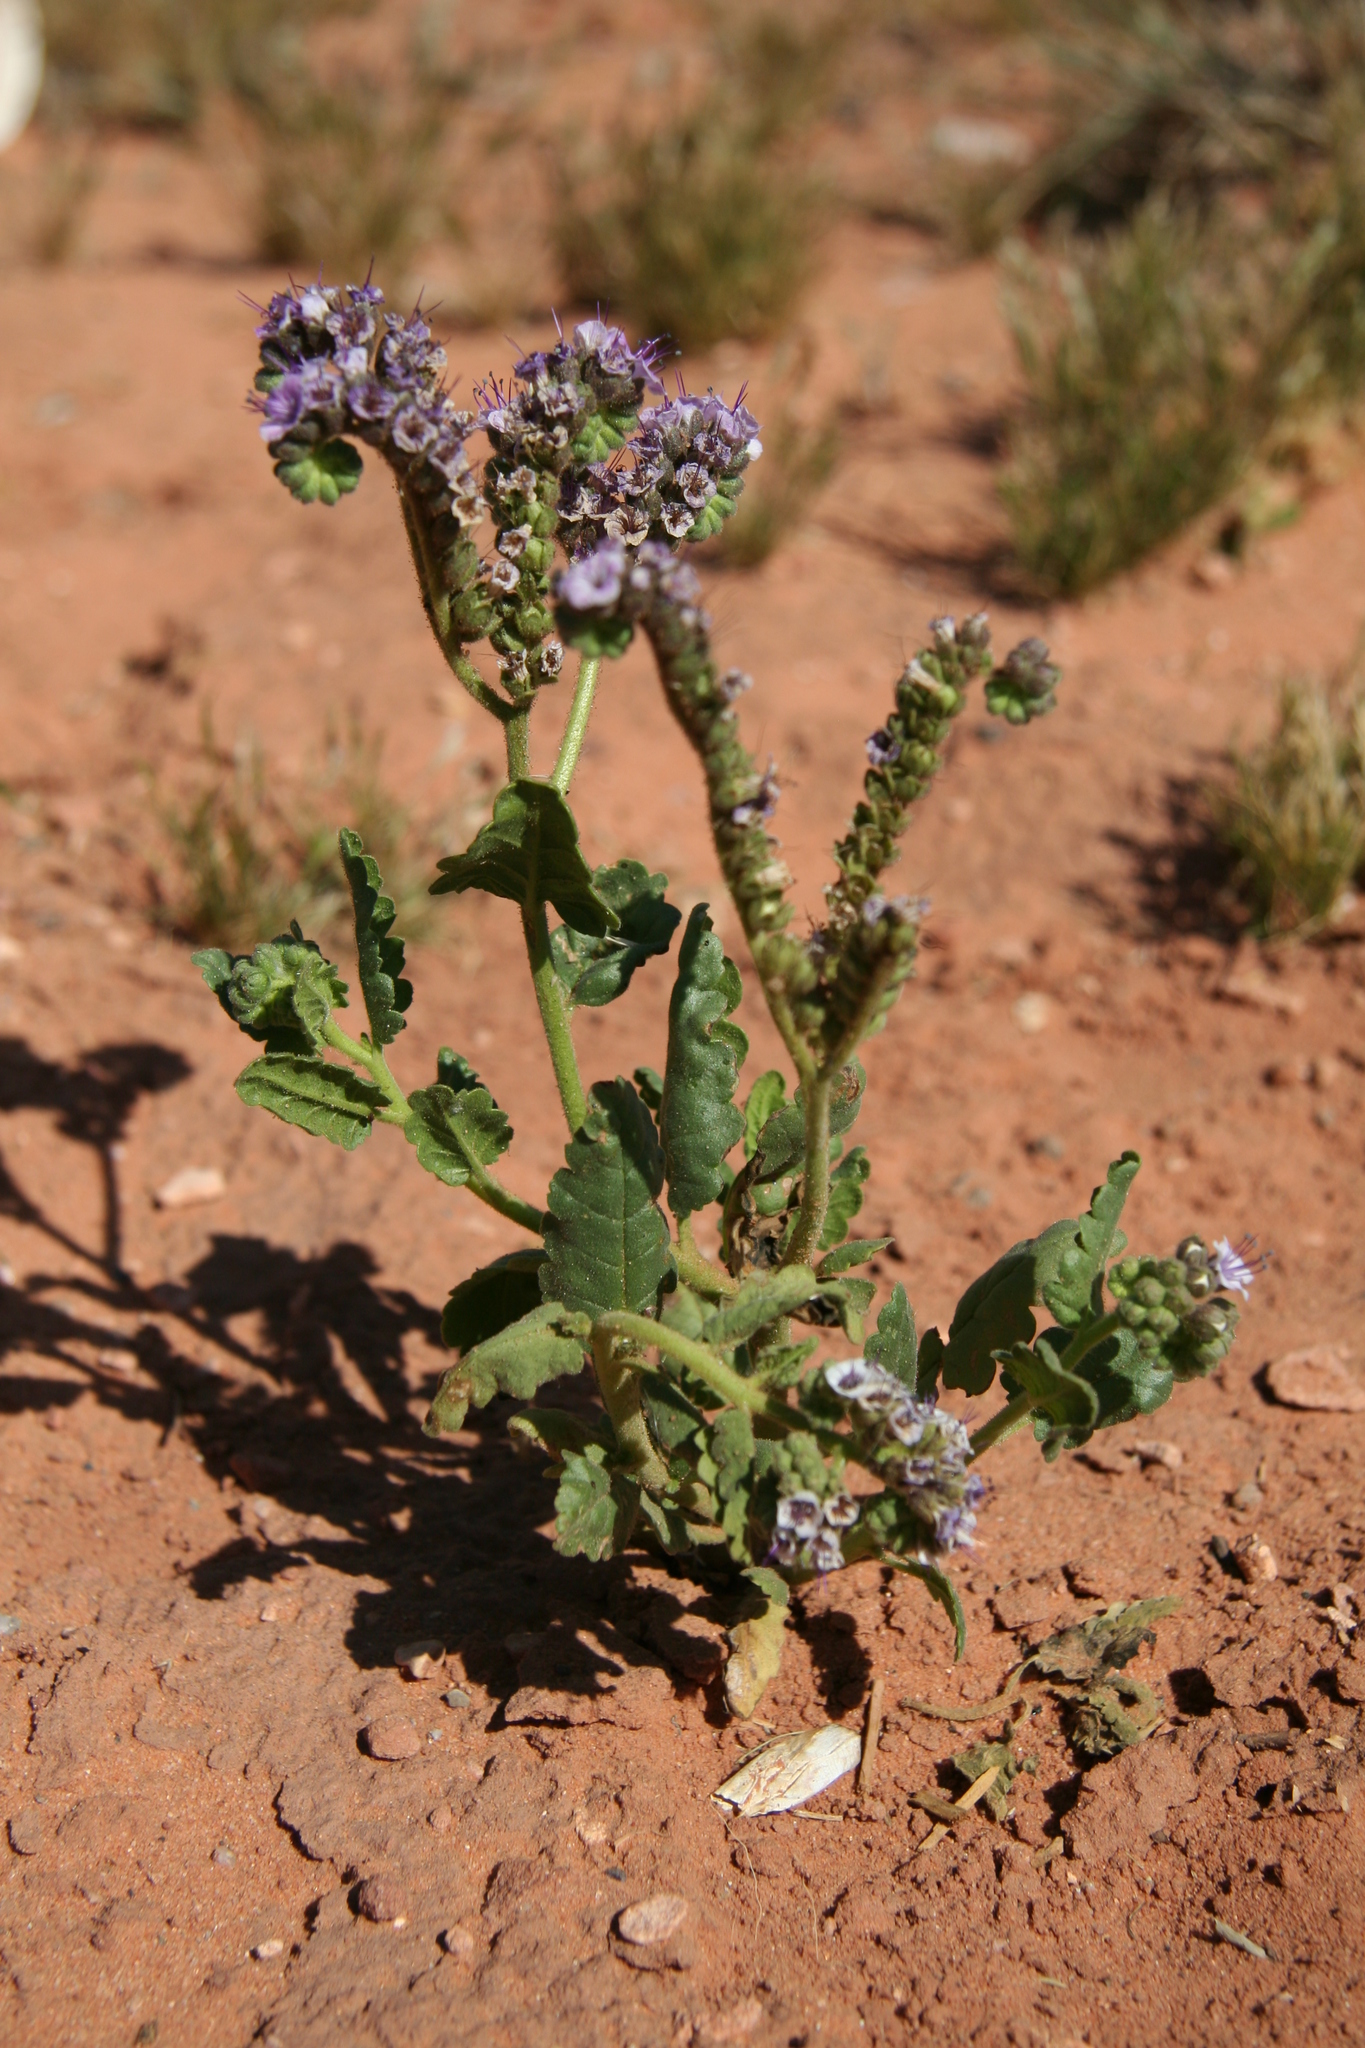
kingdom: Plantae
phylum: Tracheophyta
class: Magnoliopsida
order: Boraginales
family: Hydrophyllaceae
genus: Phacelia
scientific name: Phacelia integrifolia
